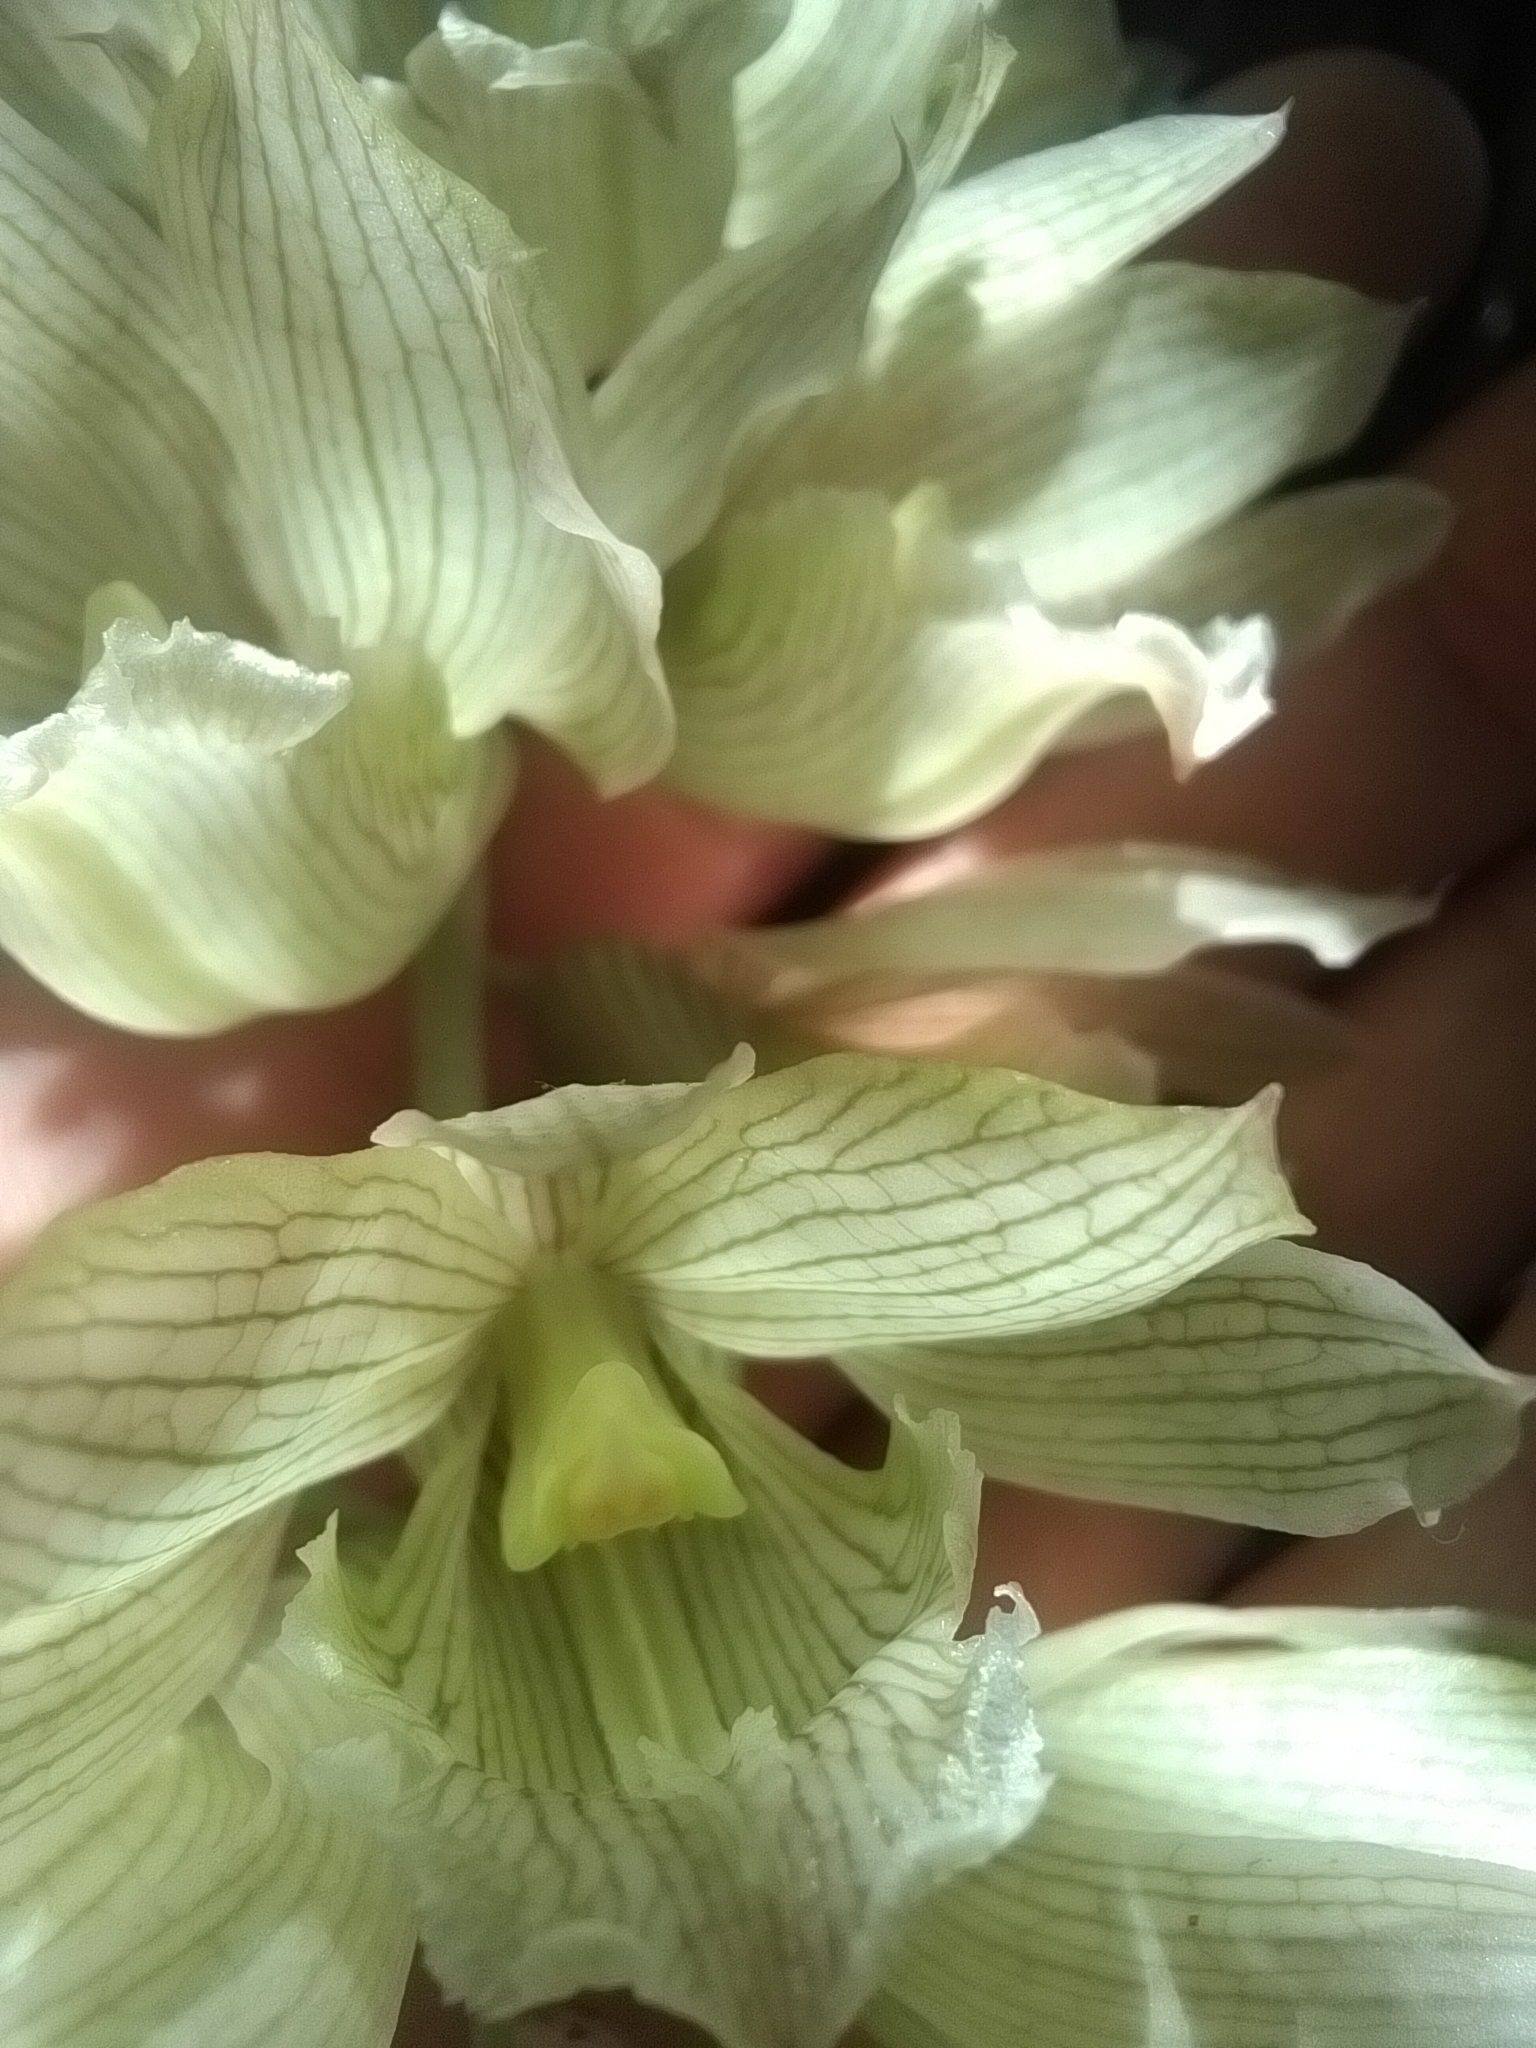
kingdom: Plantae
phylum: Tracheophyta
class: Liliopsida
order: Asparagales
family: Orchidaceae
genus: Clowesia
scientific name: Clowesia dodsoniana
